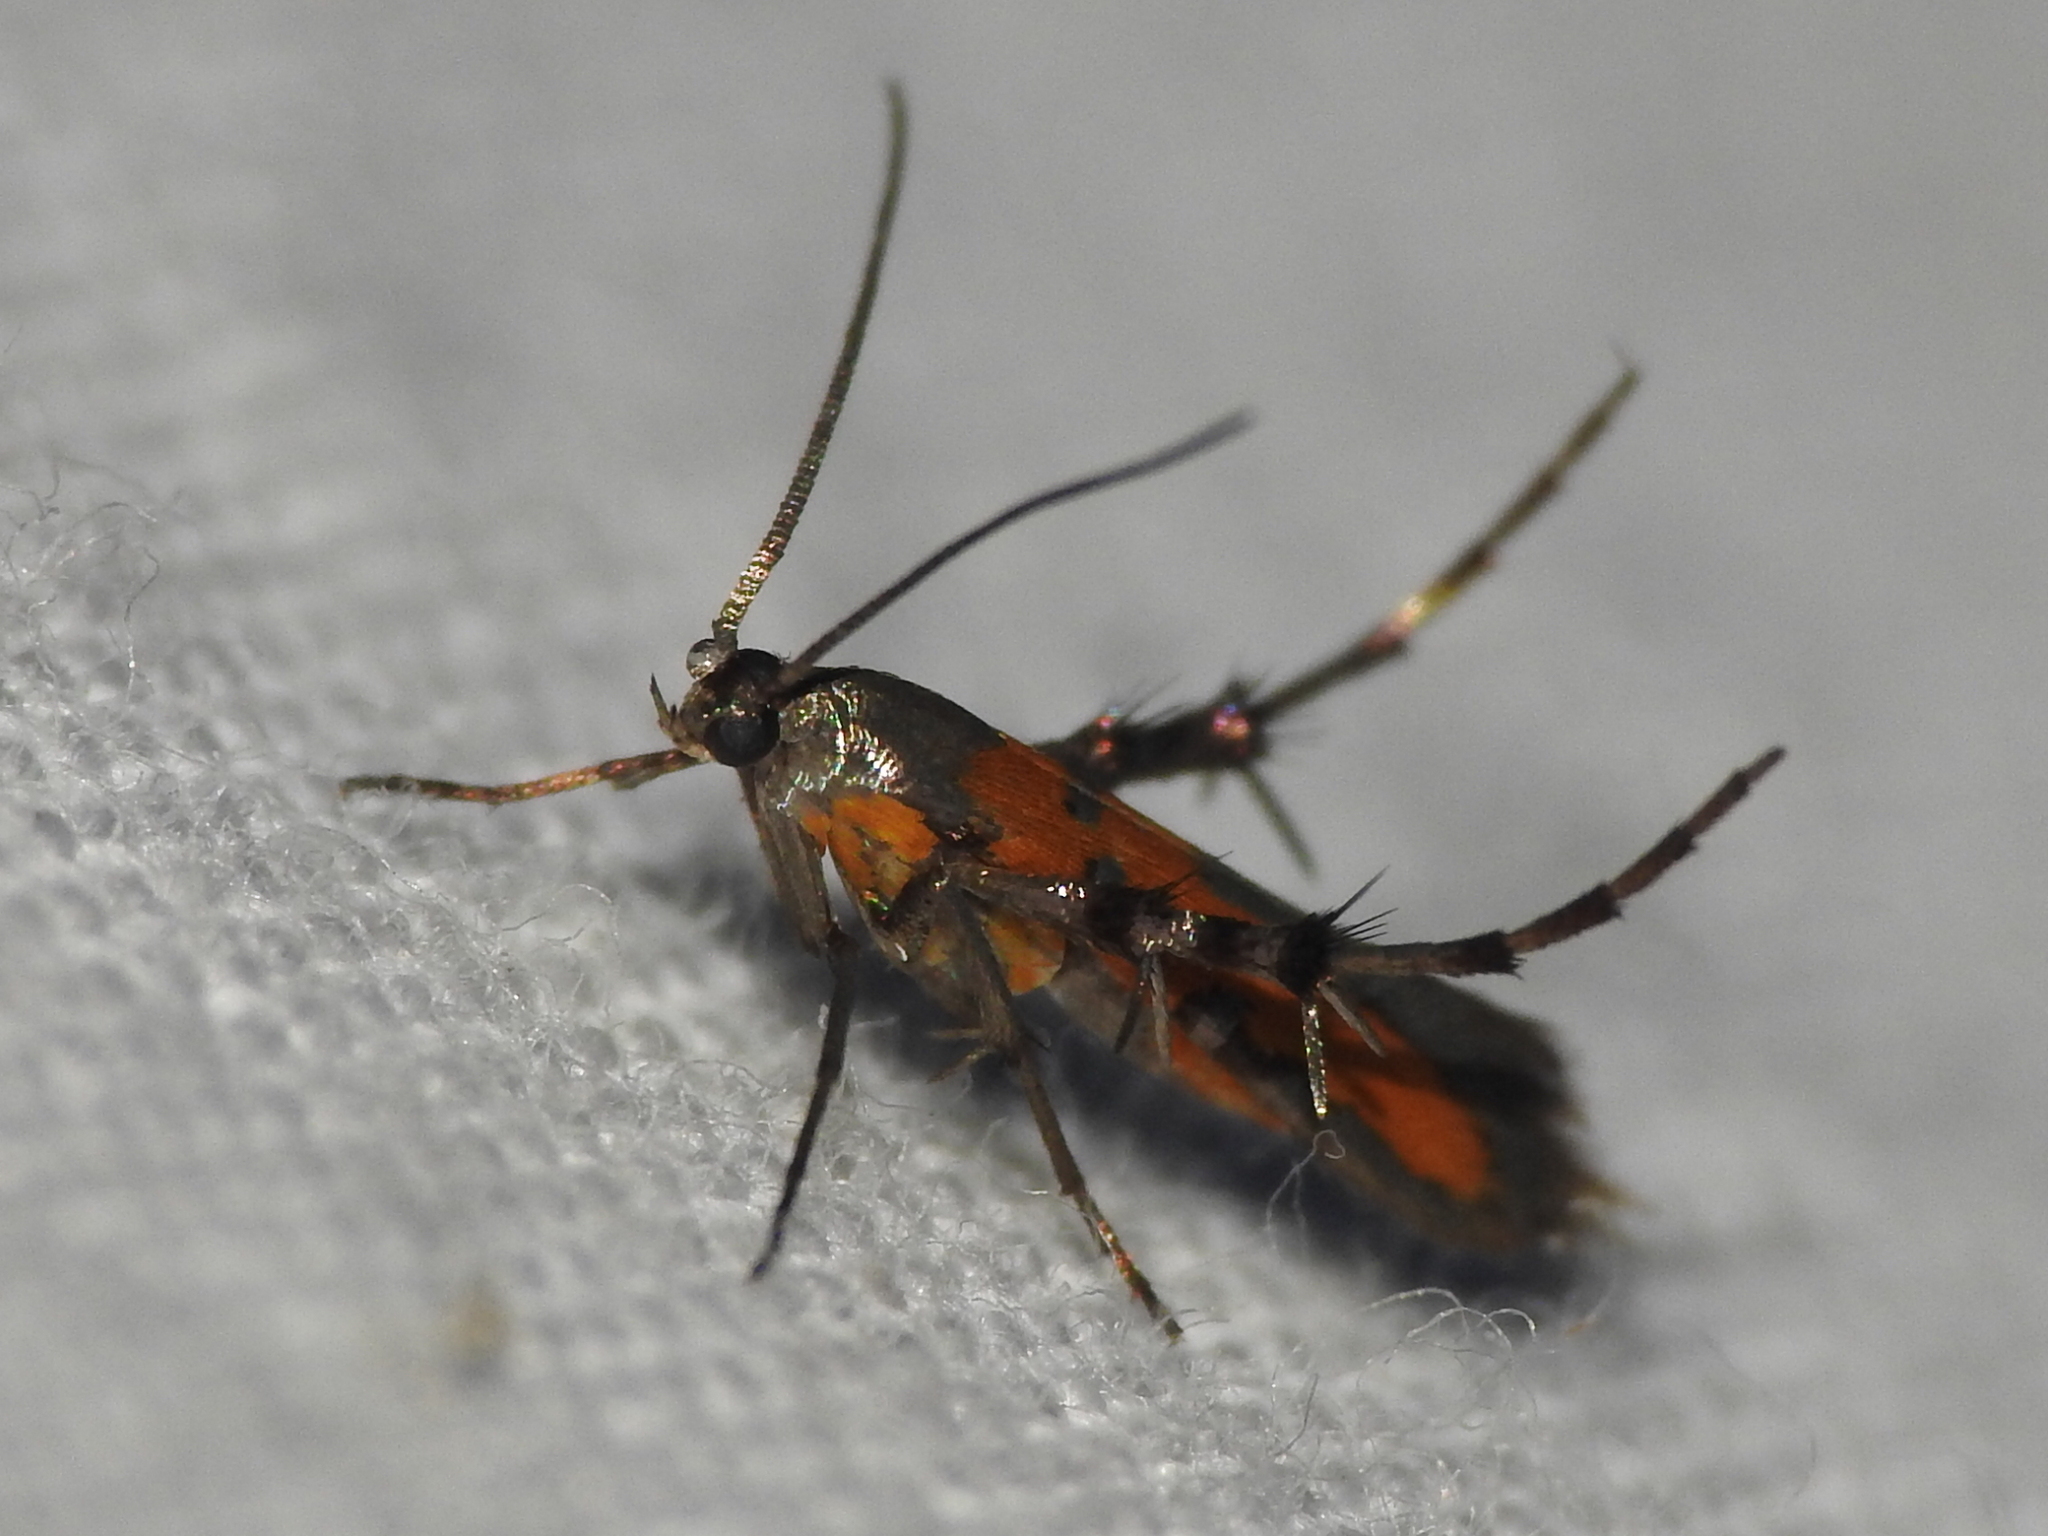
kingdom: Animalia
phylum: Arthropoda
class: Insecta
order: Lepidoptera
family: Heliodinidae
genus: Heliodines
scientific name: Heliodines Aetole tripunctella
